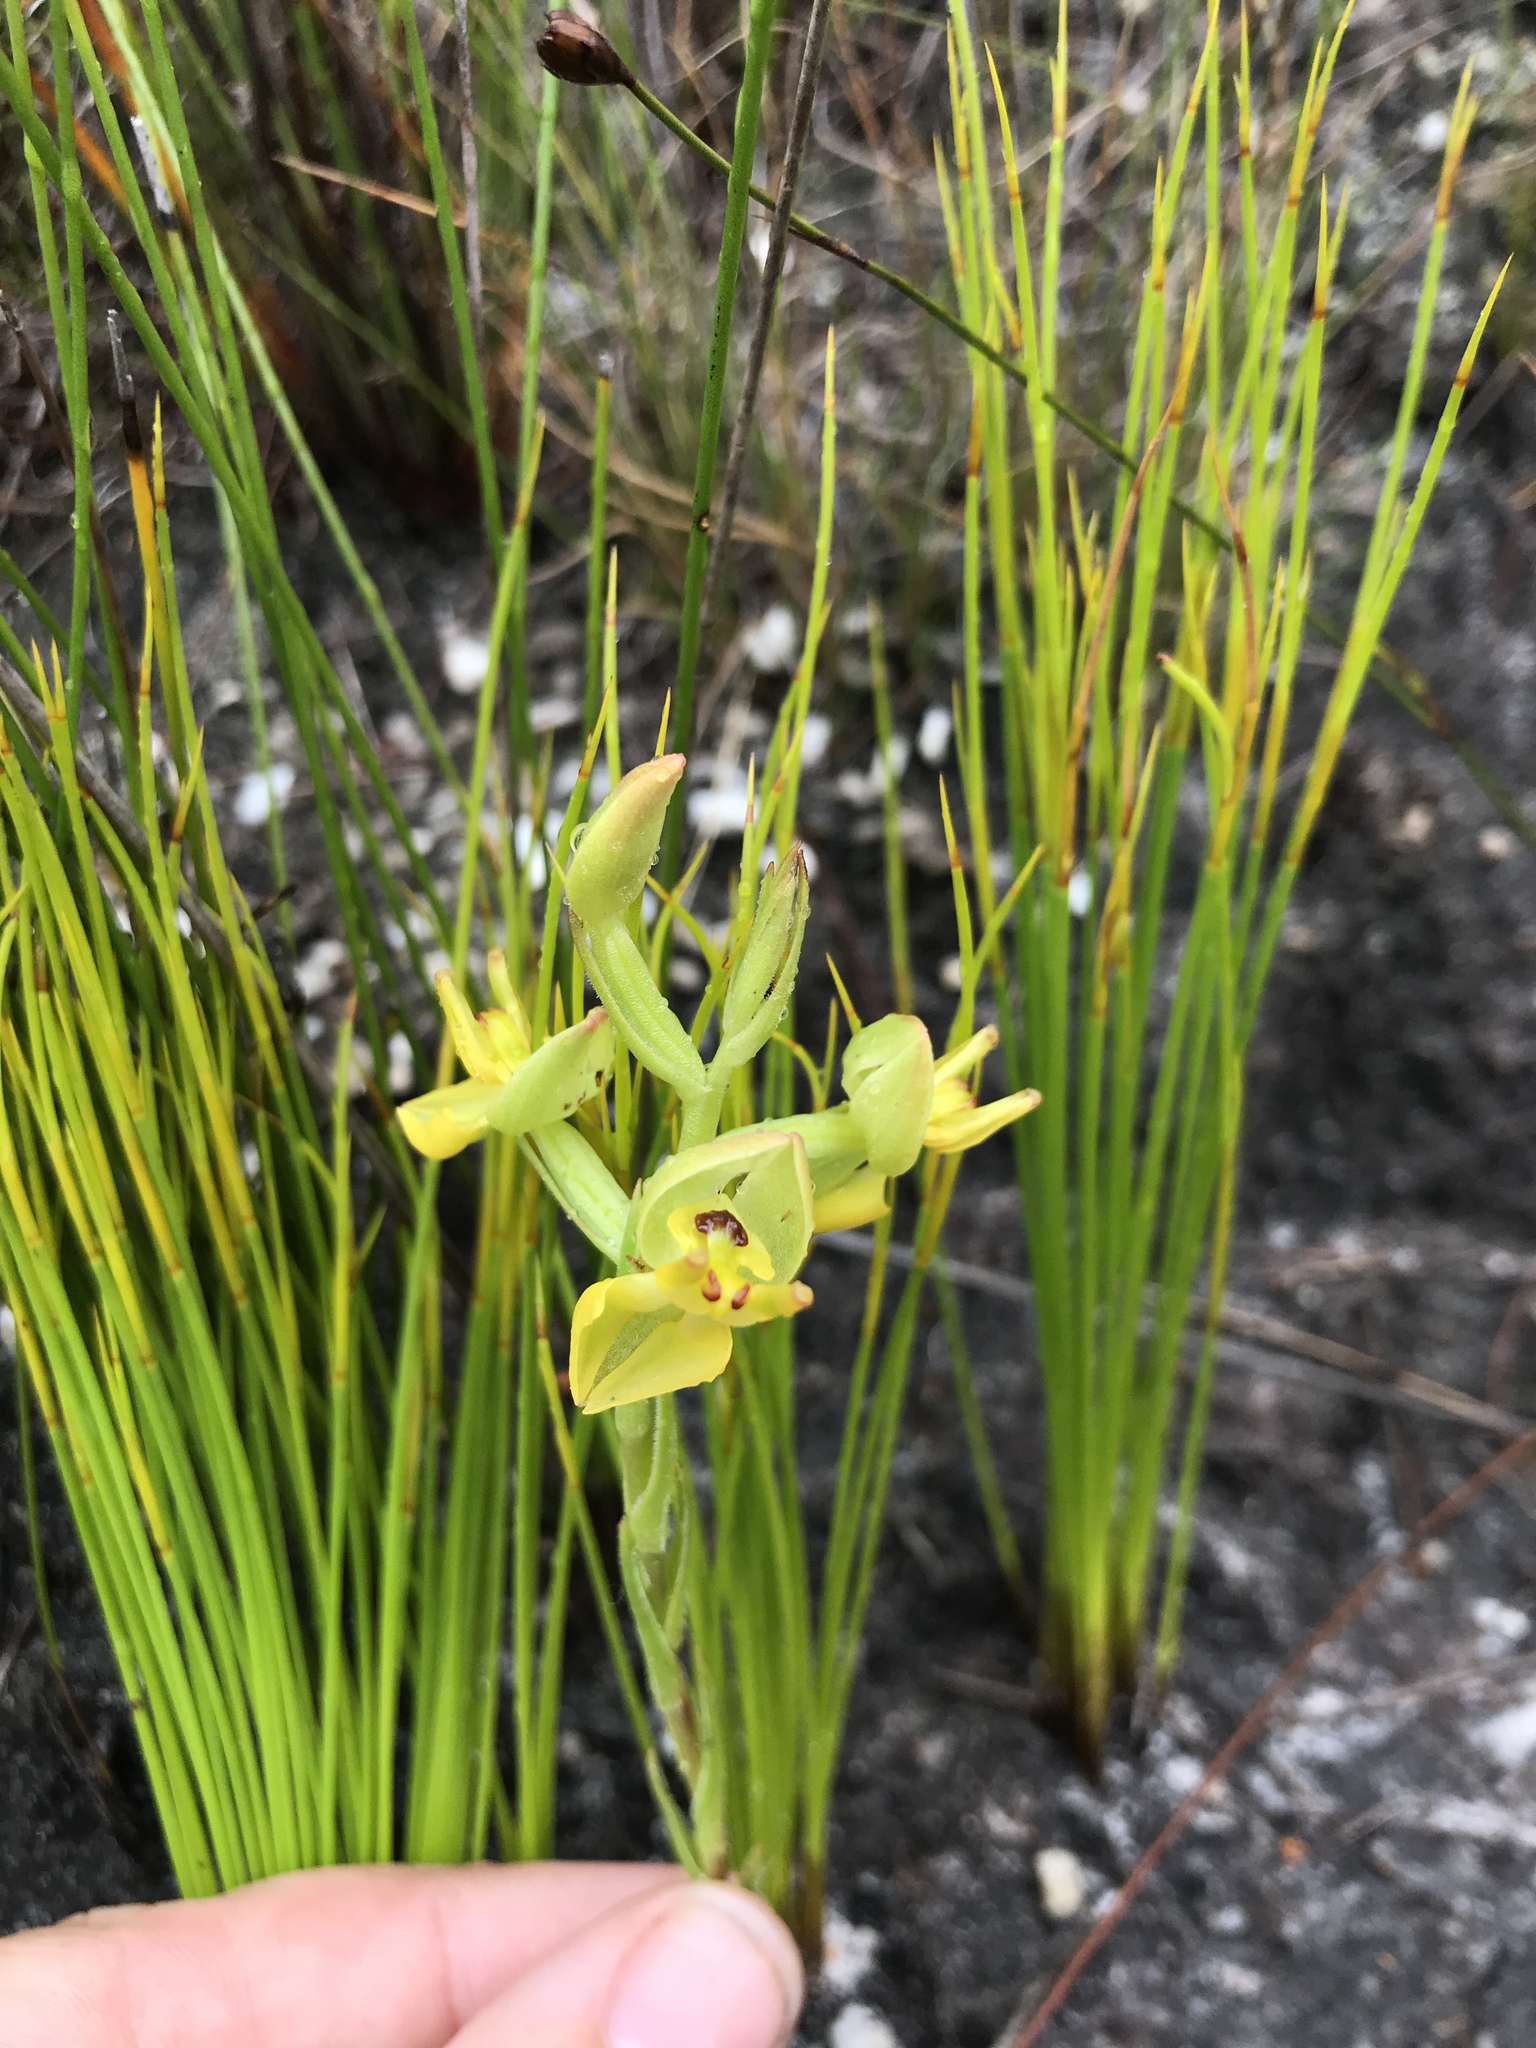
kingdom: Plantae
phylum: Tracheophyta
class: Liliopsida
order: Asparagales
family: Orchidaceae
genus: Ceratandra
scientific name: Ceratandra atrata
